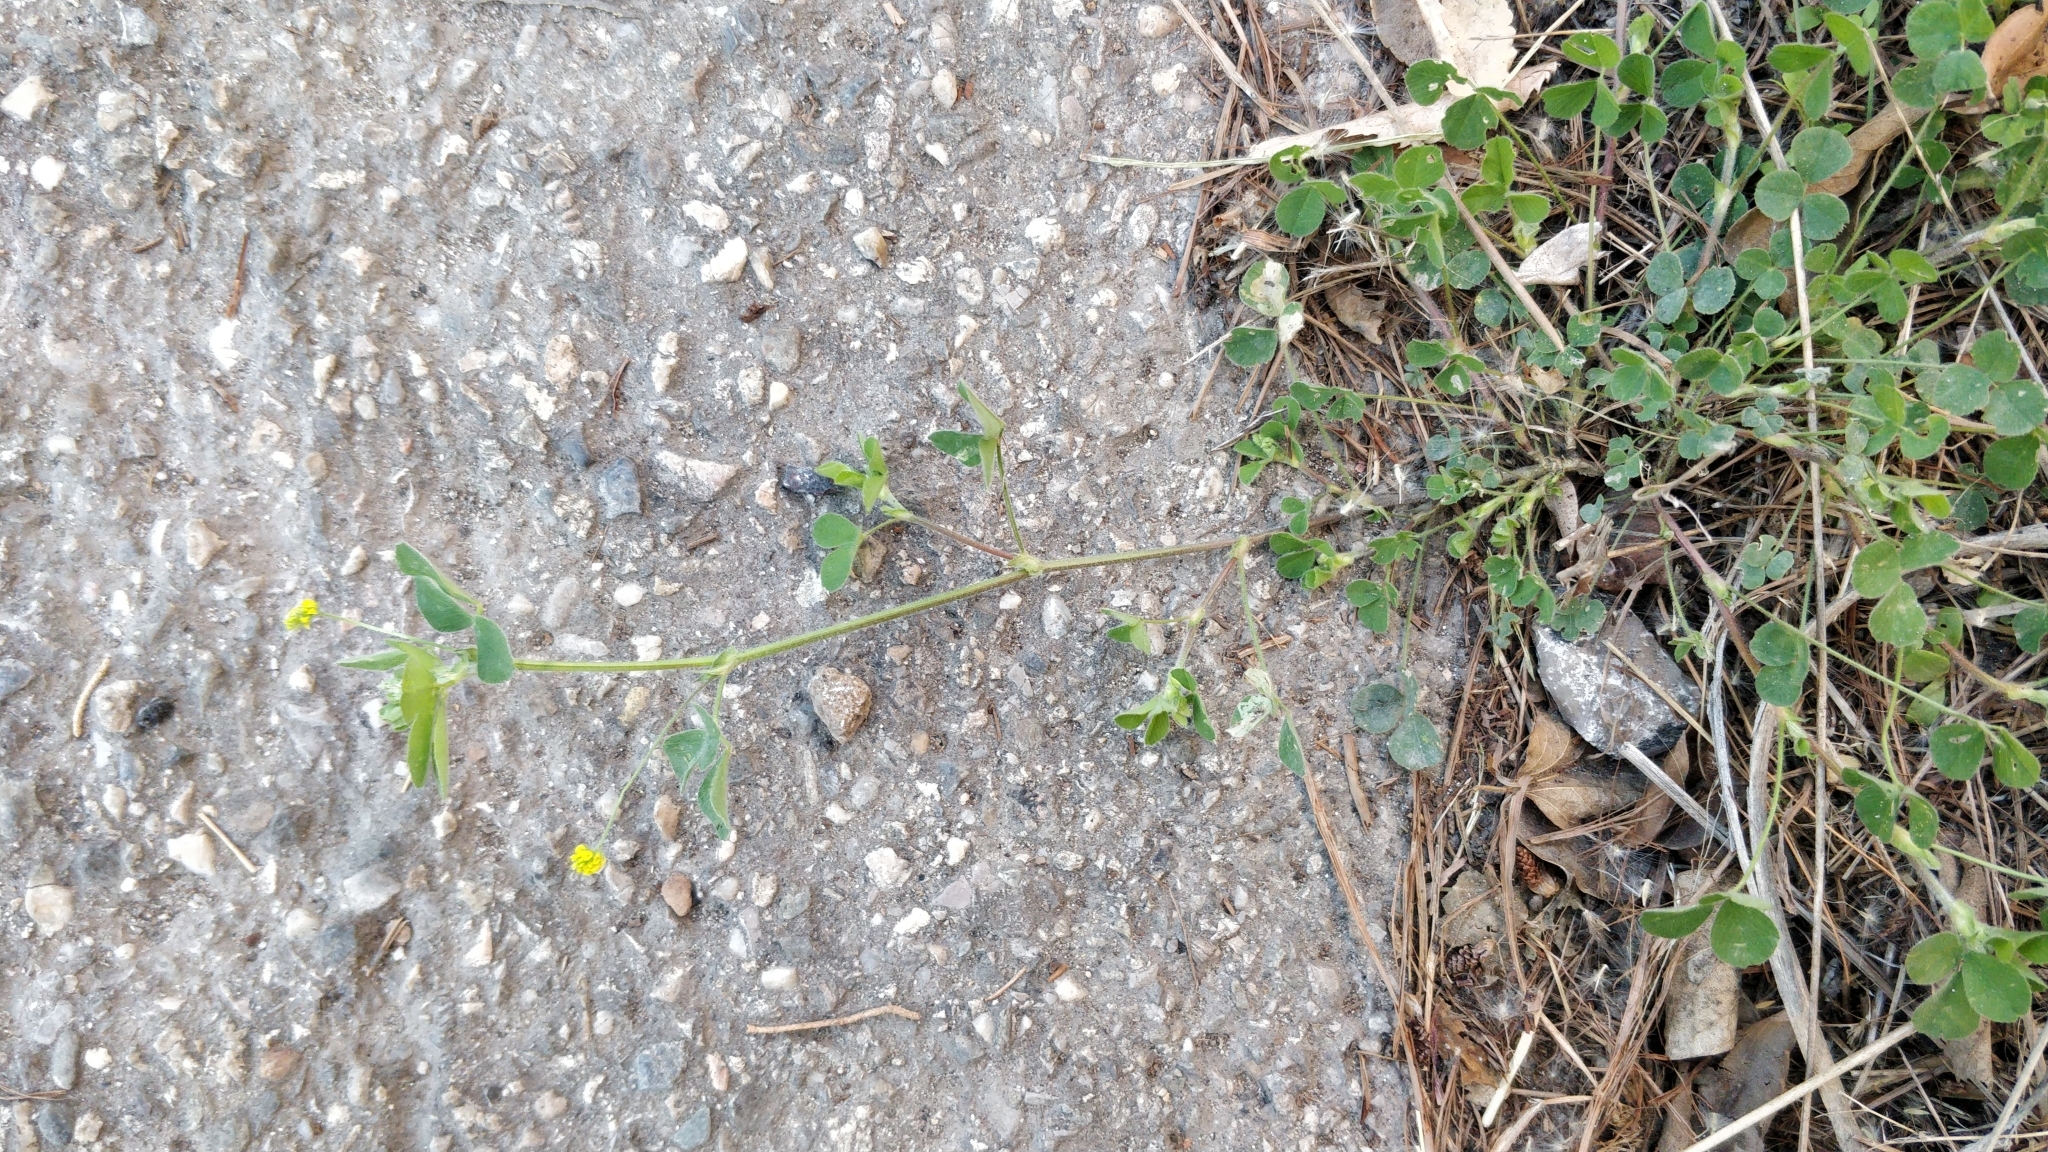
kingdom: Plantae
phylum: Tracheophyta
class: Magnoliopsida
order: Fabales
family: Fabaceae
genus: Medicago
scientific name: Medicago lupulina
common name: Black medick
